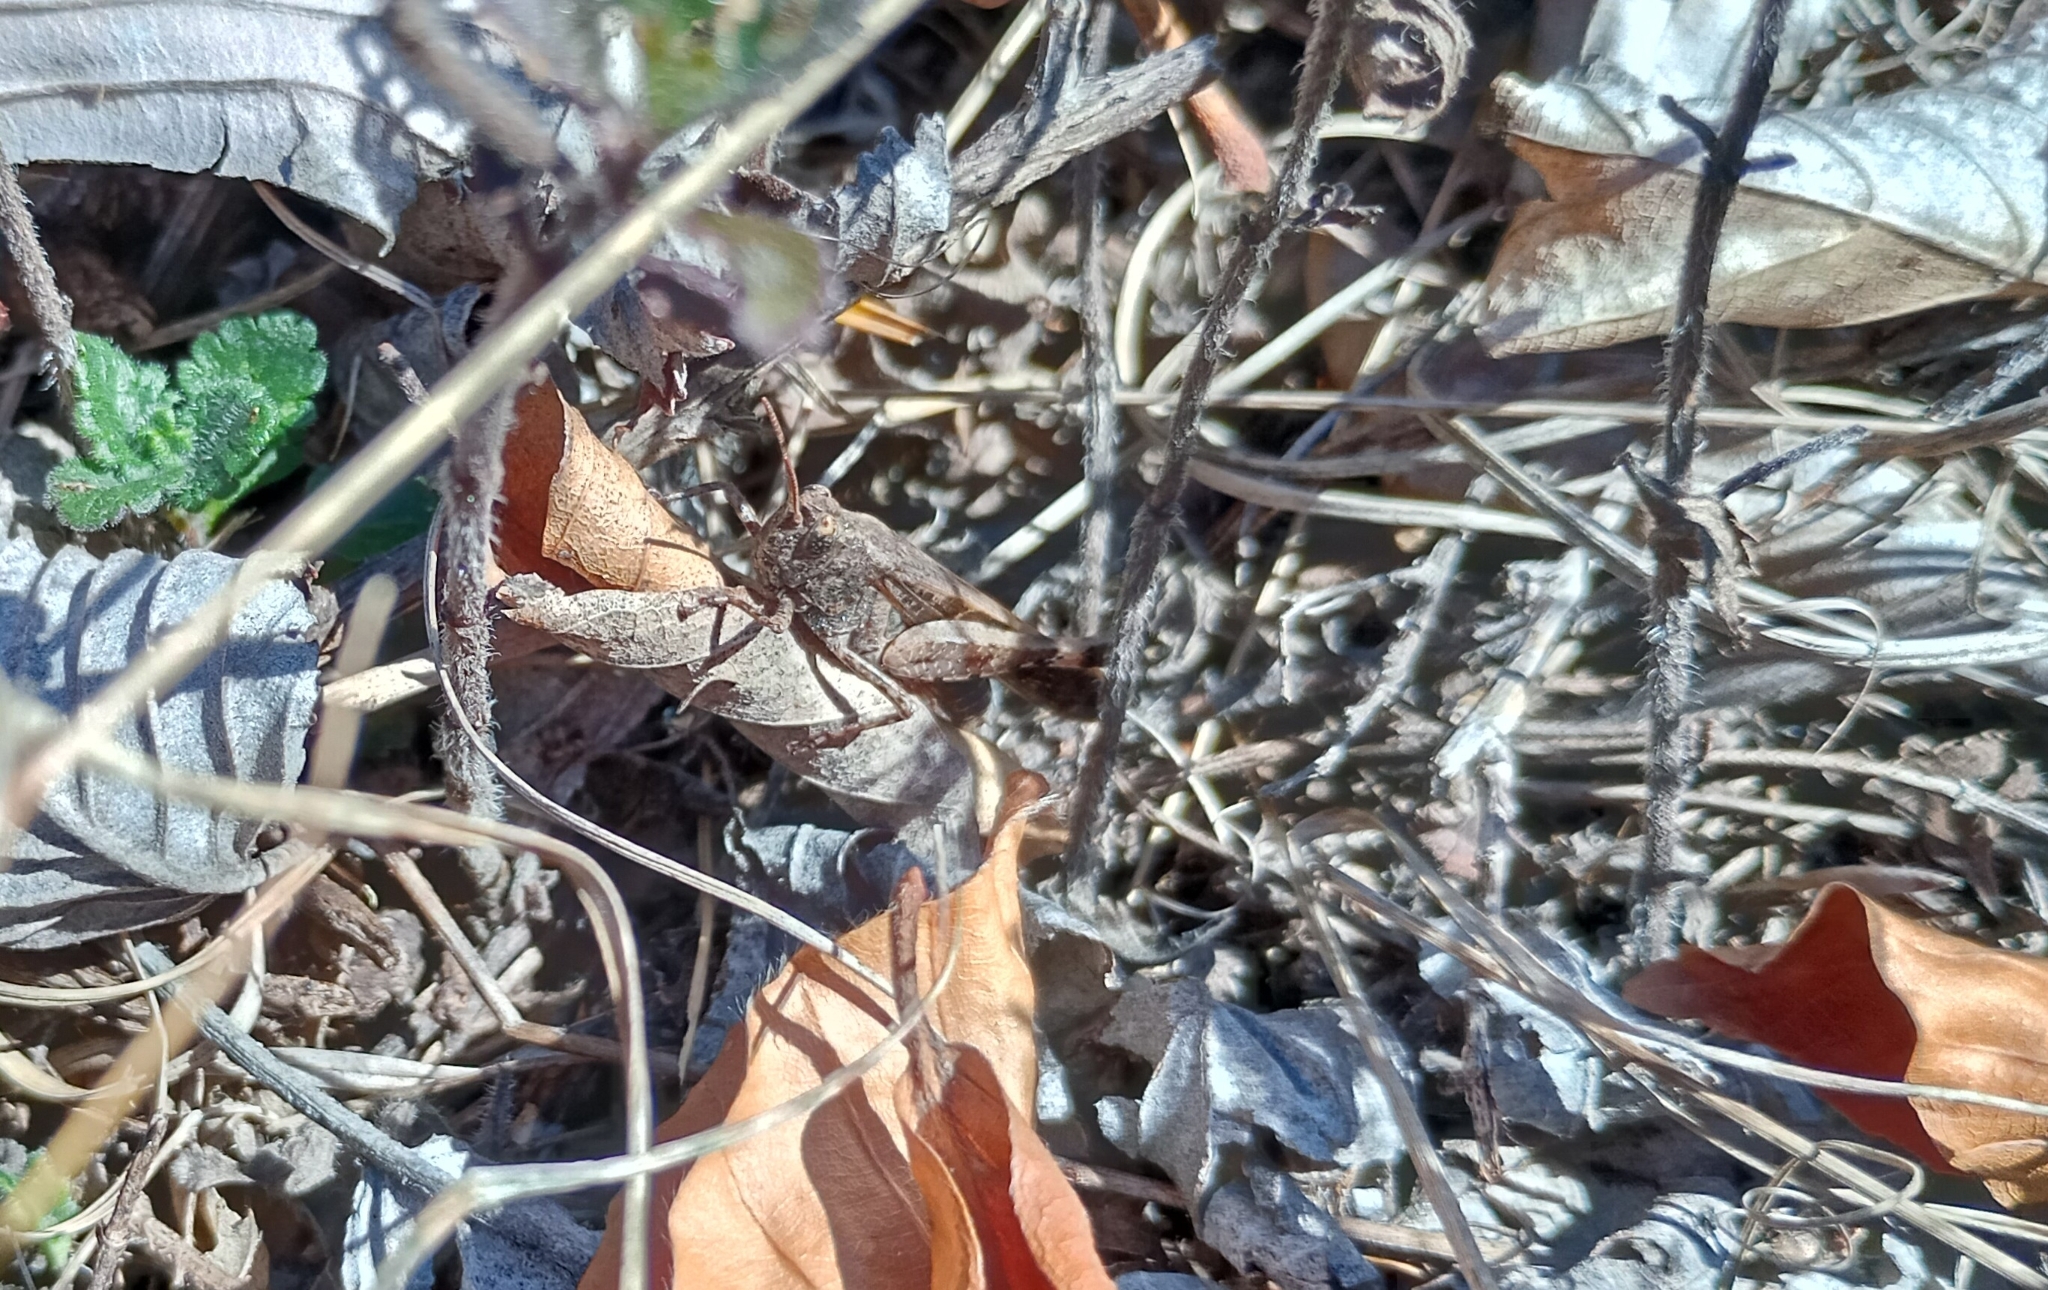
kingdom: Animalia
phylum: Arthropoda
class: Insecta
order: Orthoptera
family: Acrididae
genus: Aiolopus
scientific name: Aiolopus strepens
